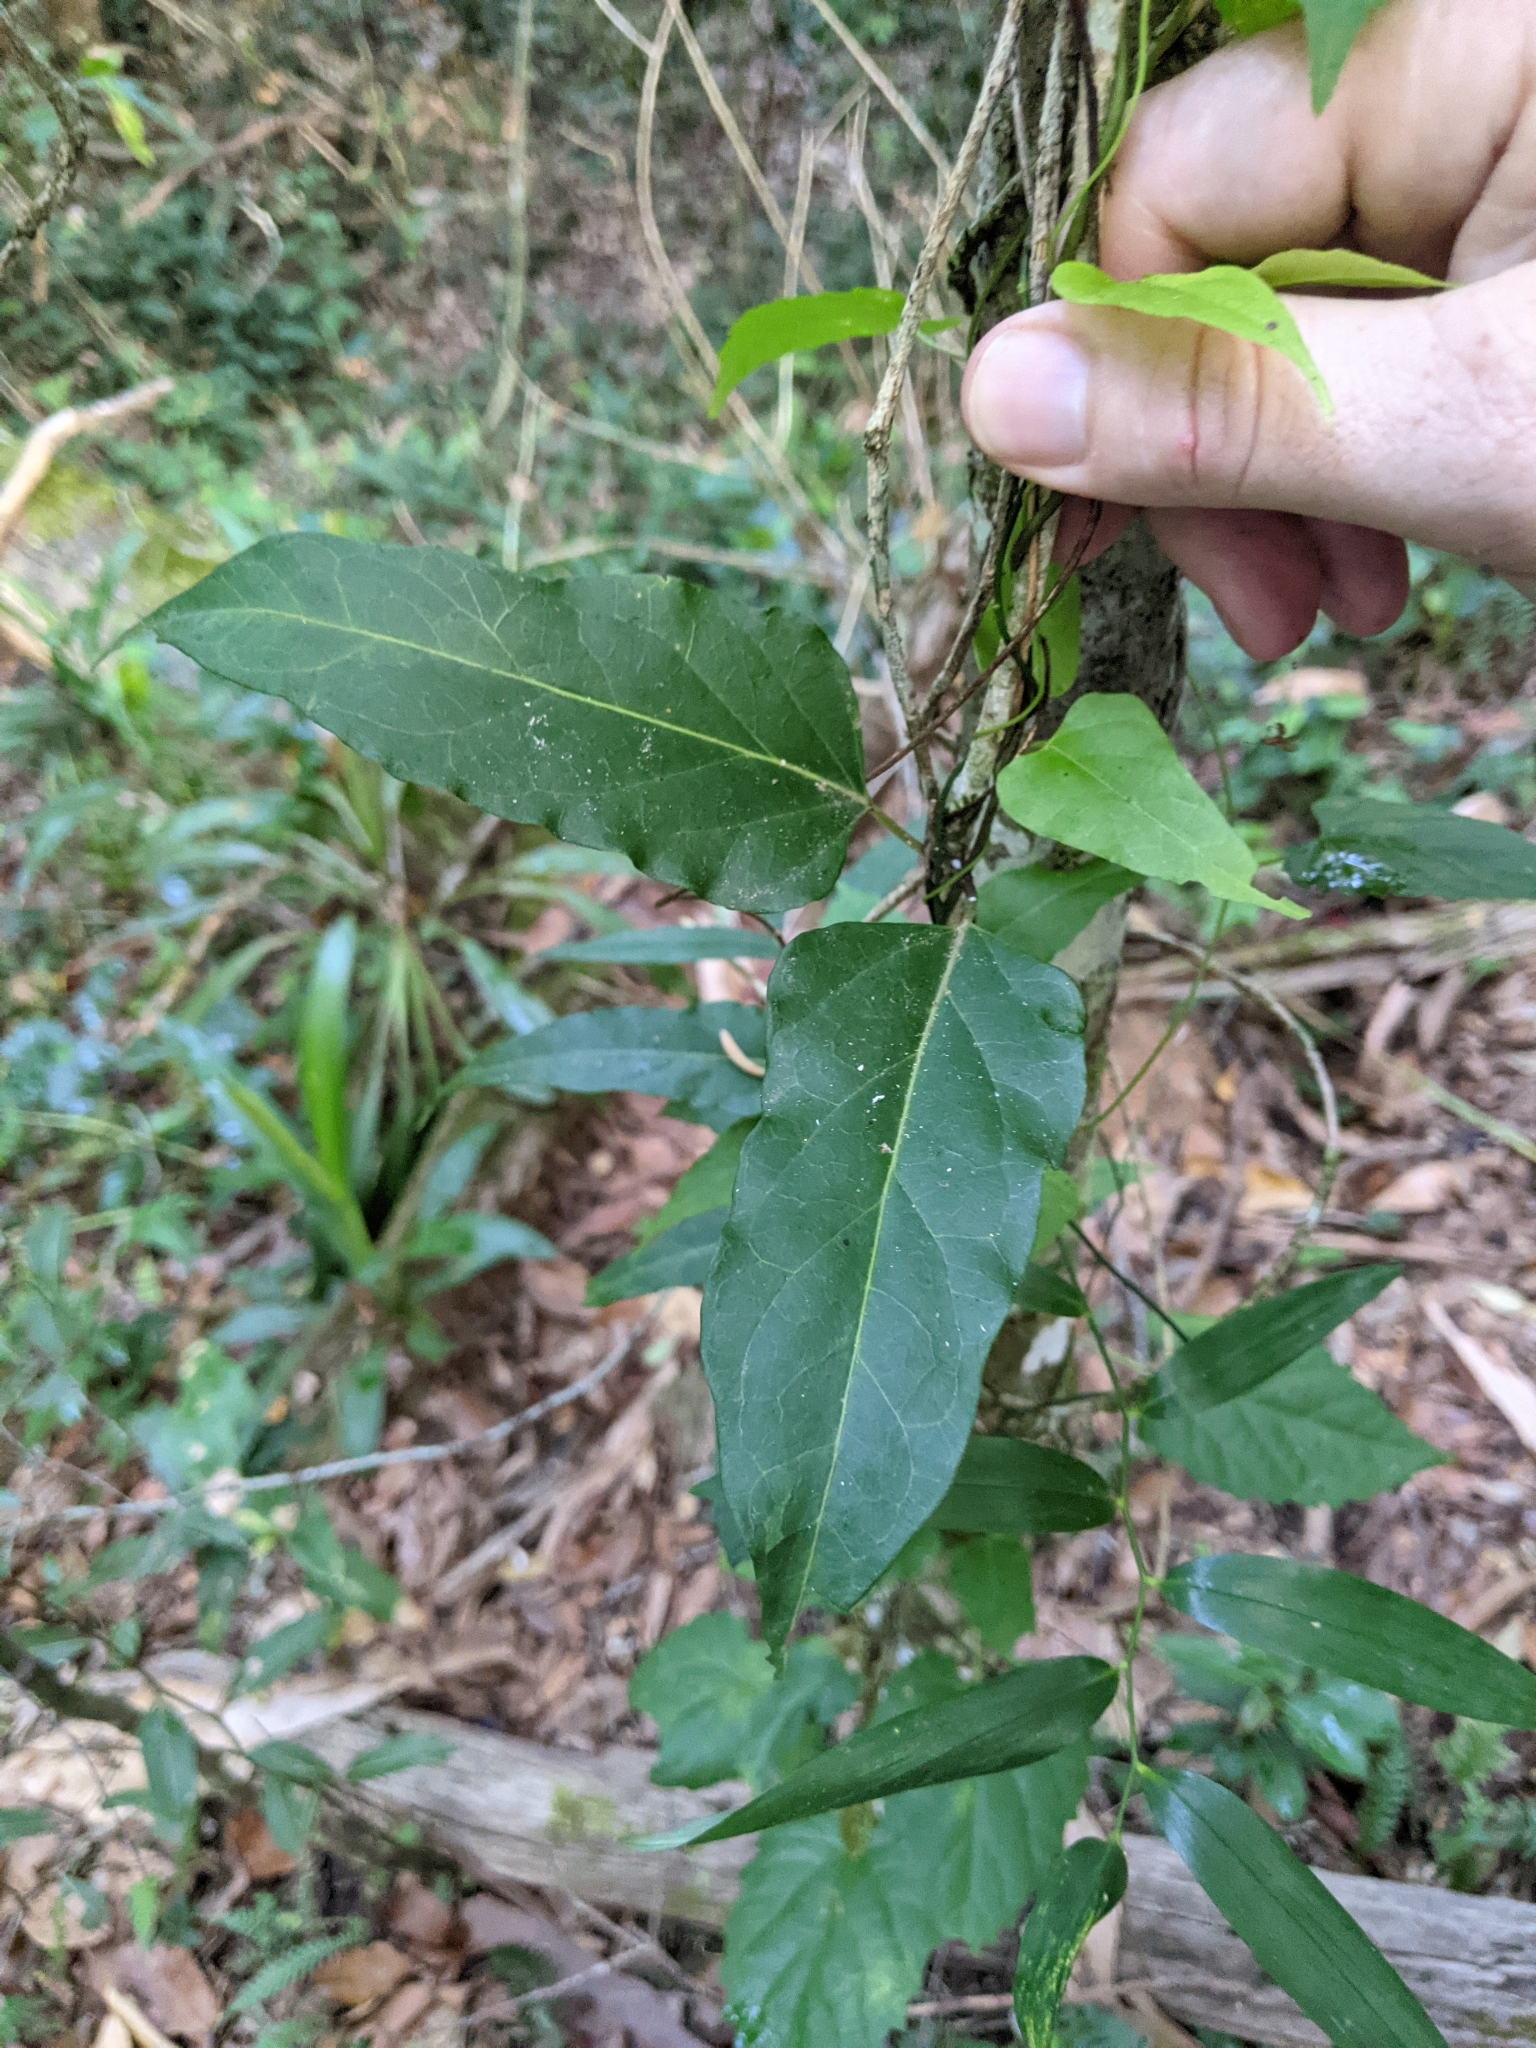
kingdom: Plantae
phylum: Tracheophyta
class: Magnoliopsida
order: Gentianales
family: Apocynaceae
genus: Vincetoxicum
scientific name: Vincetoxicum paniculatum
